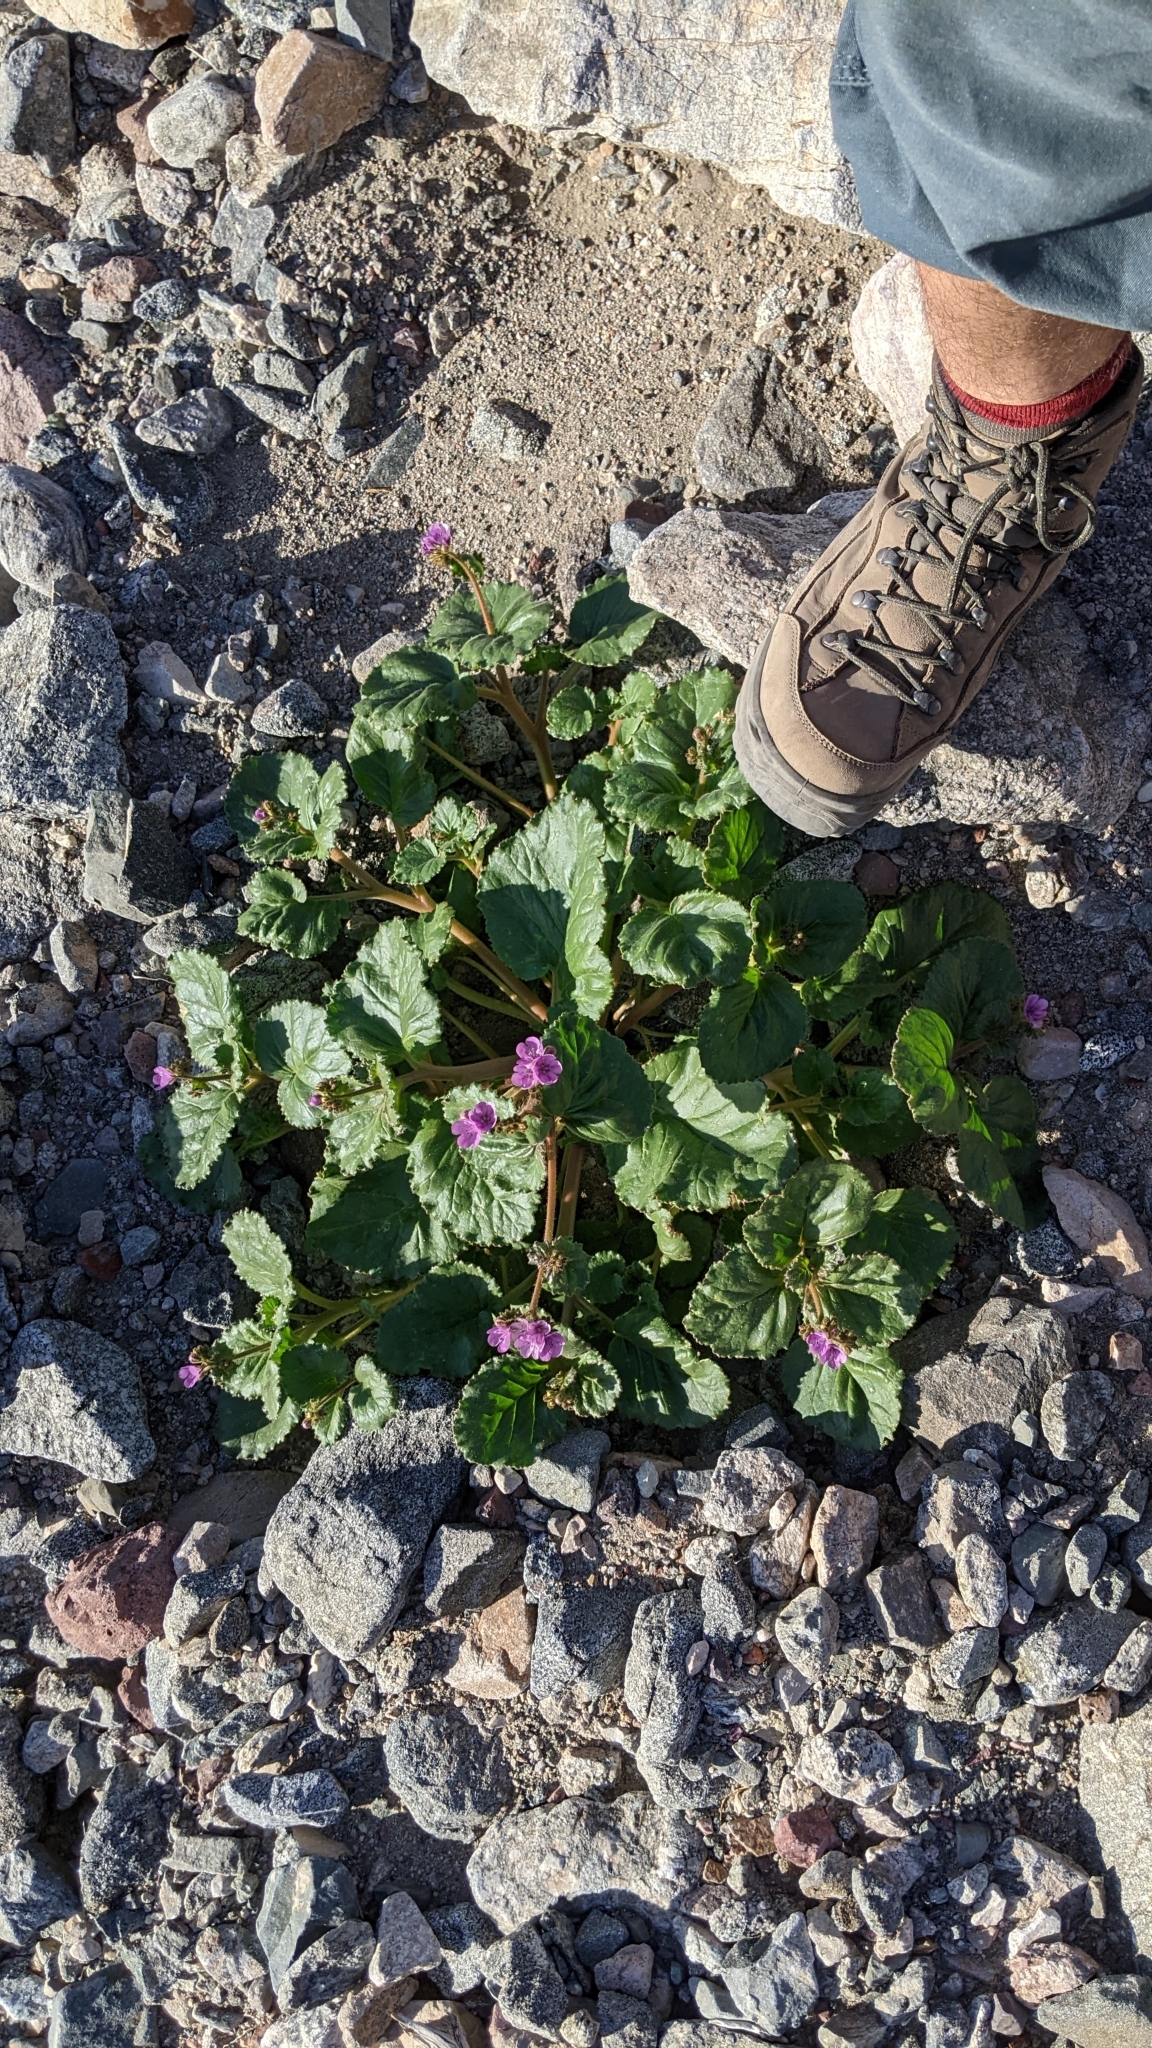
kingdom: Plantae
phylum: Tracheophyta
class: Magnoliopsida
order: Boraginales
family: Hydrophyllaceae
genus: Phacelia
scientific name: Phacelia calthifolia
